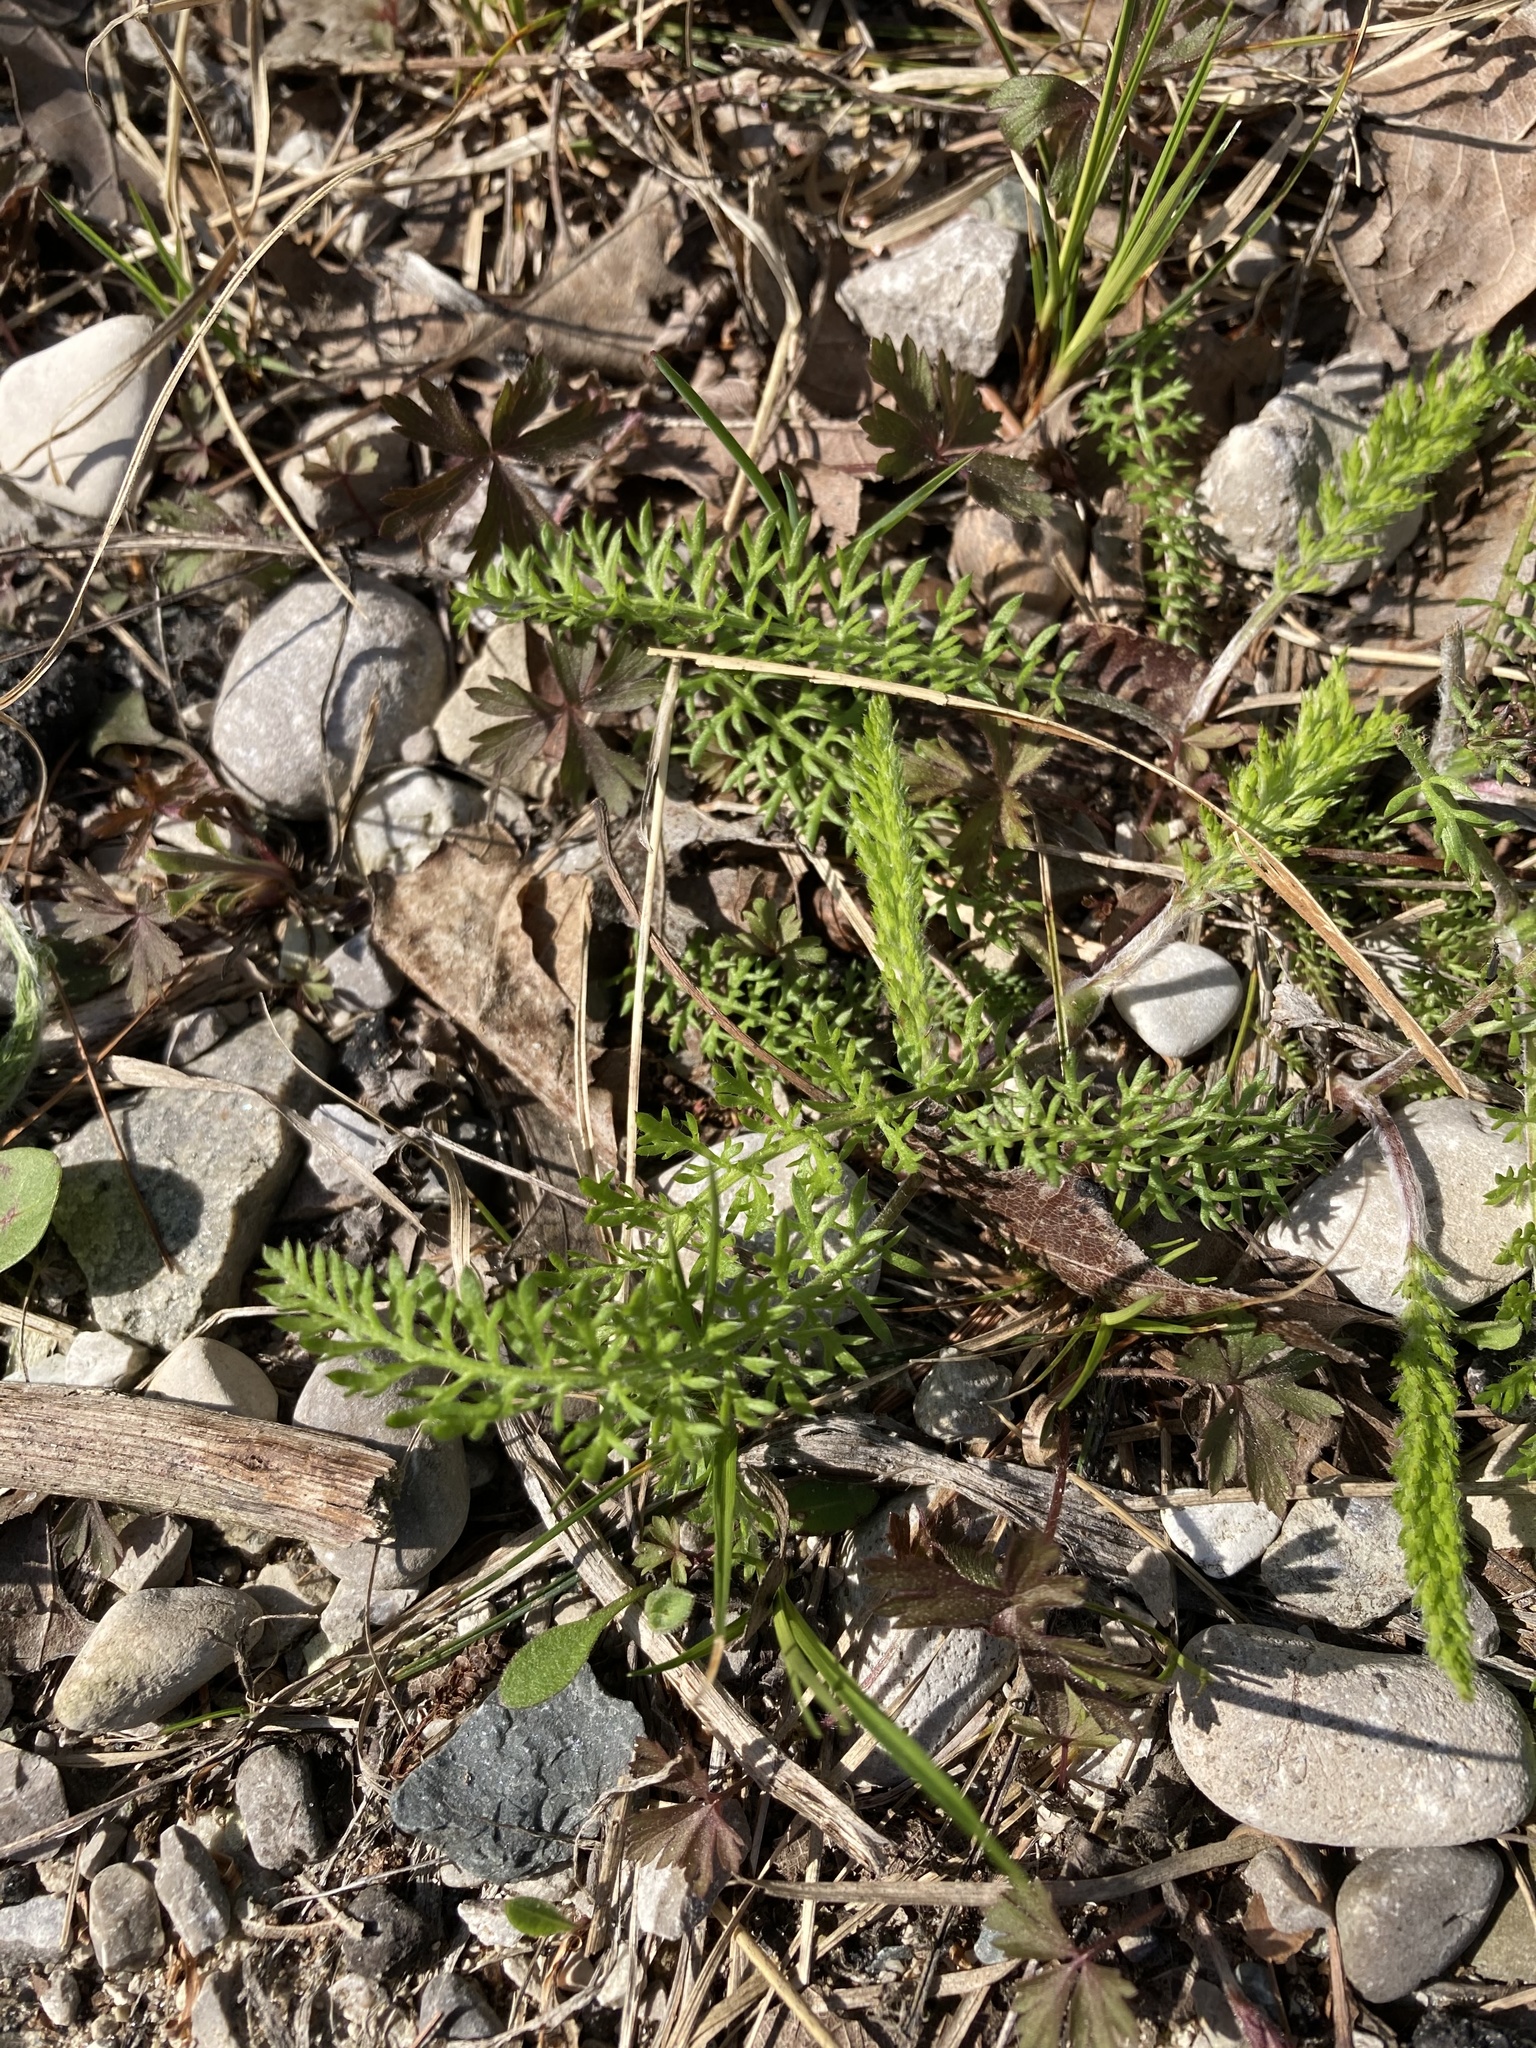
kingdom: Plantae
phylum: Tracheophyta
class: Magnoliopsida
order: Asterales
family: Asteraceae
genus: Achillea
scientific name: Achillea millefolium
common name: Yarrow
